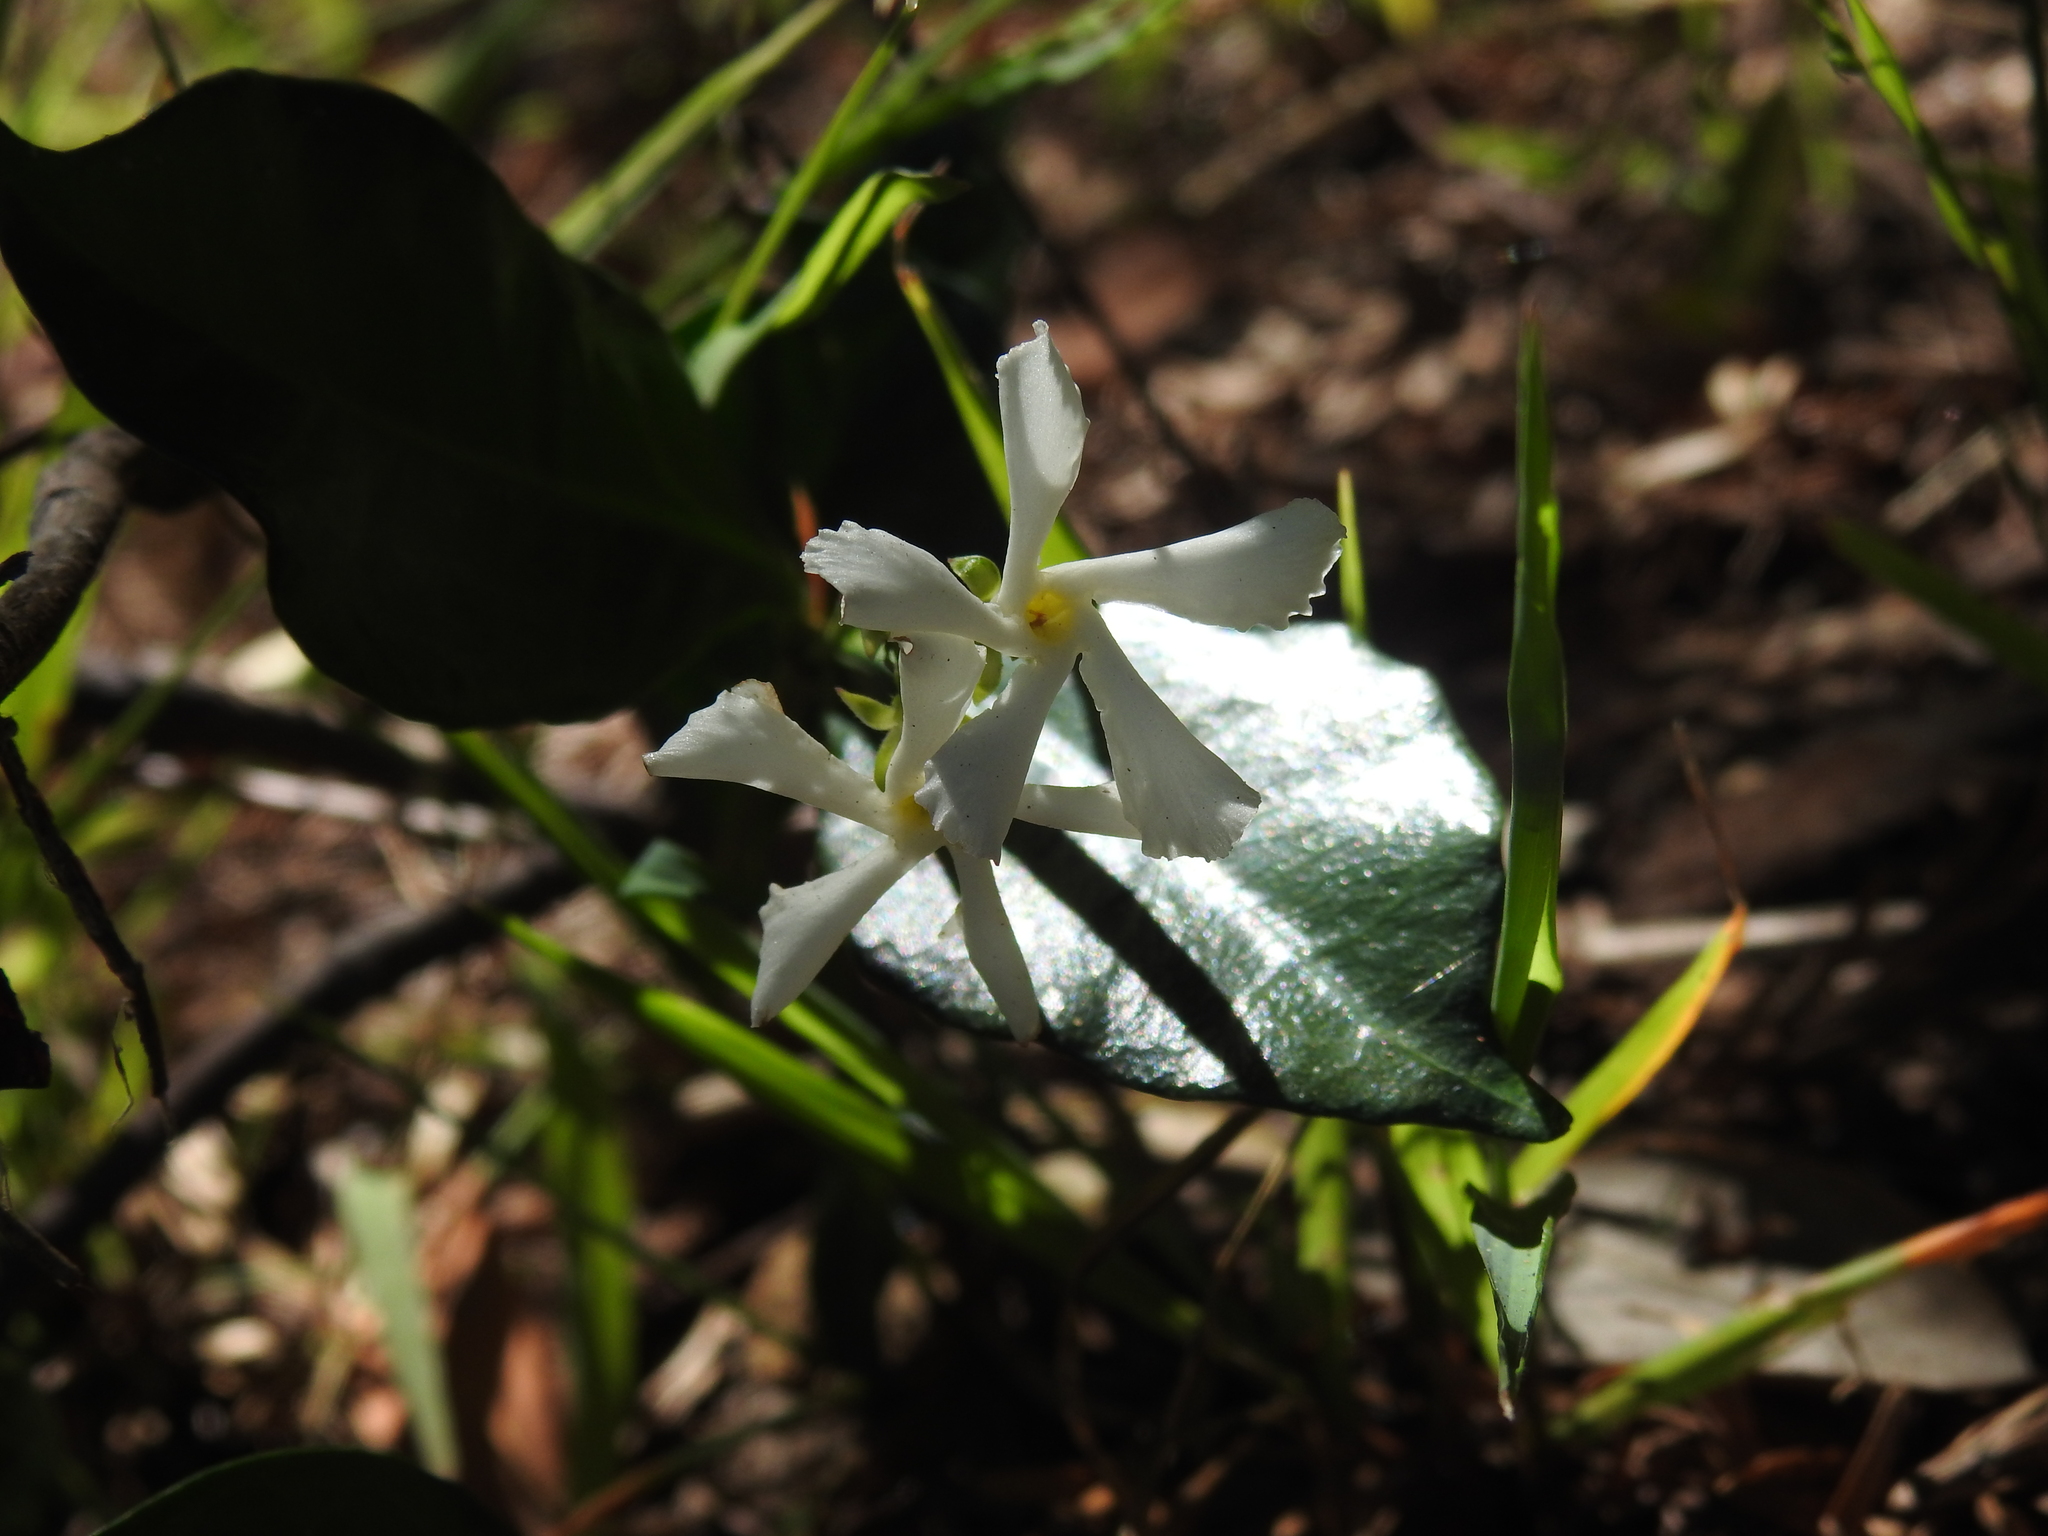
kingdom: Plantae
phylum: Tracheophyta
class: Magnoliopsida
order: Gentianales
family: Apocynaceae
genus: Trachelospermum
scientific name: Trachelospermum jasminoides
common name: Confederate jasmine
